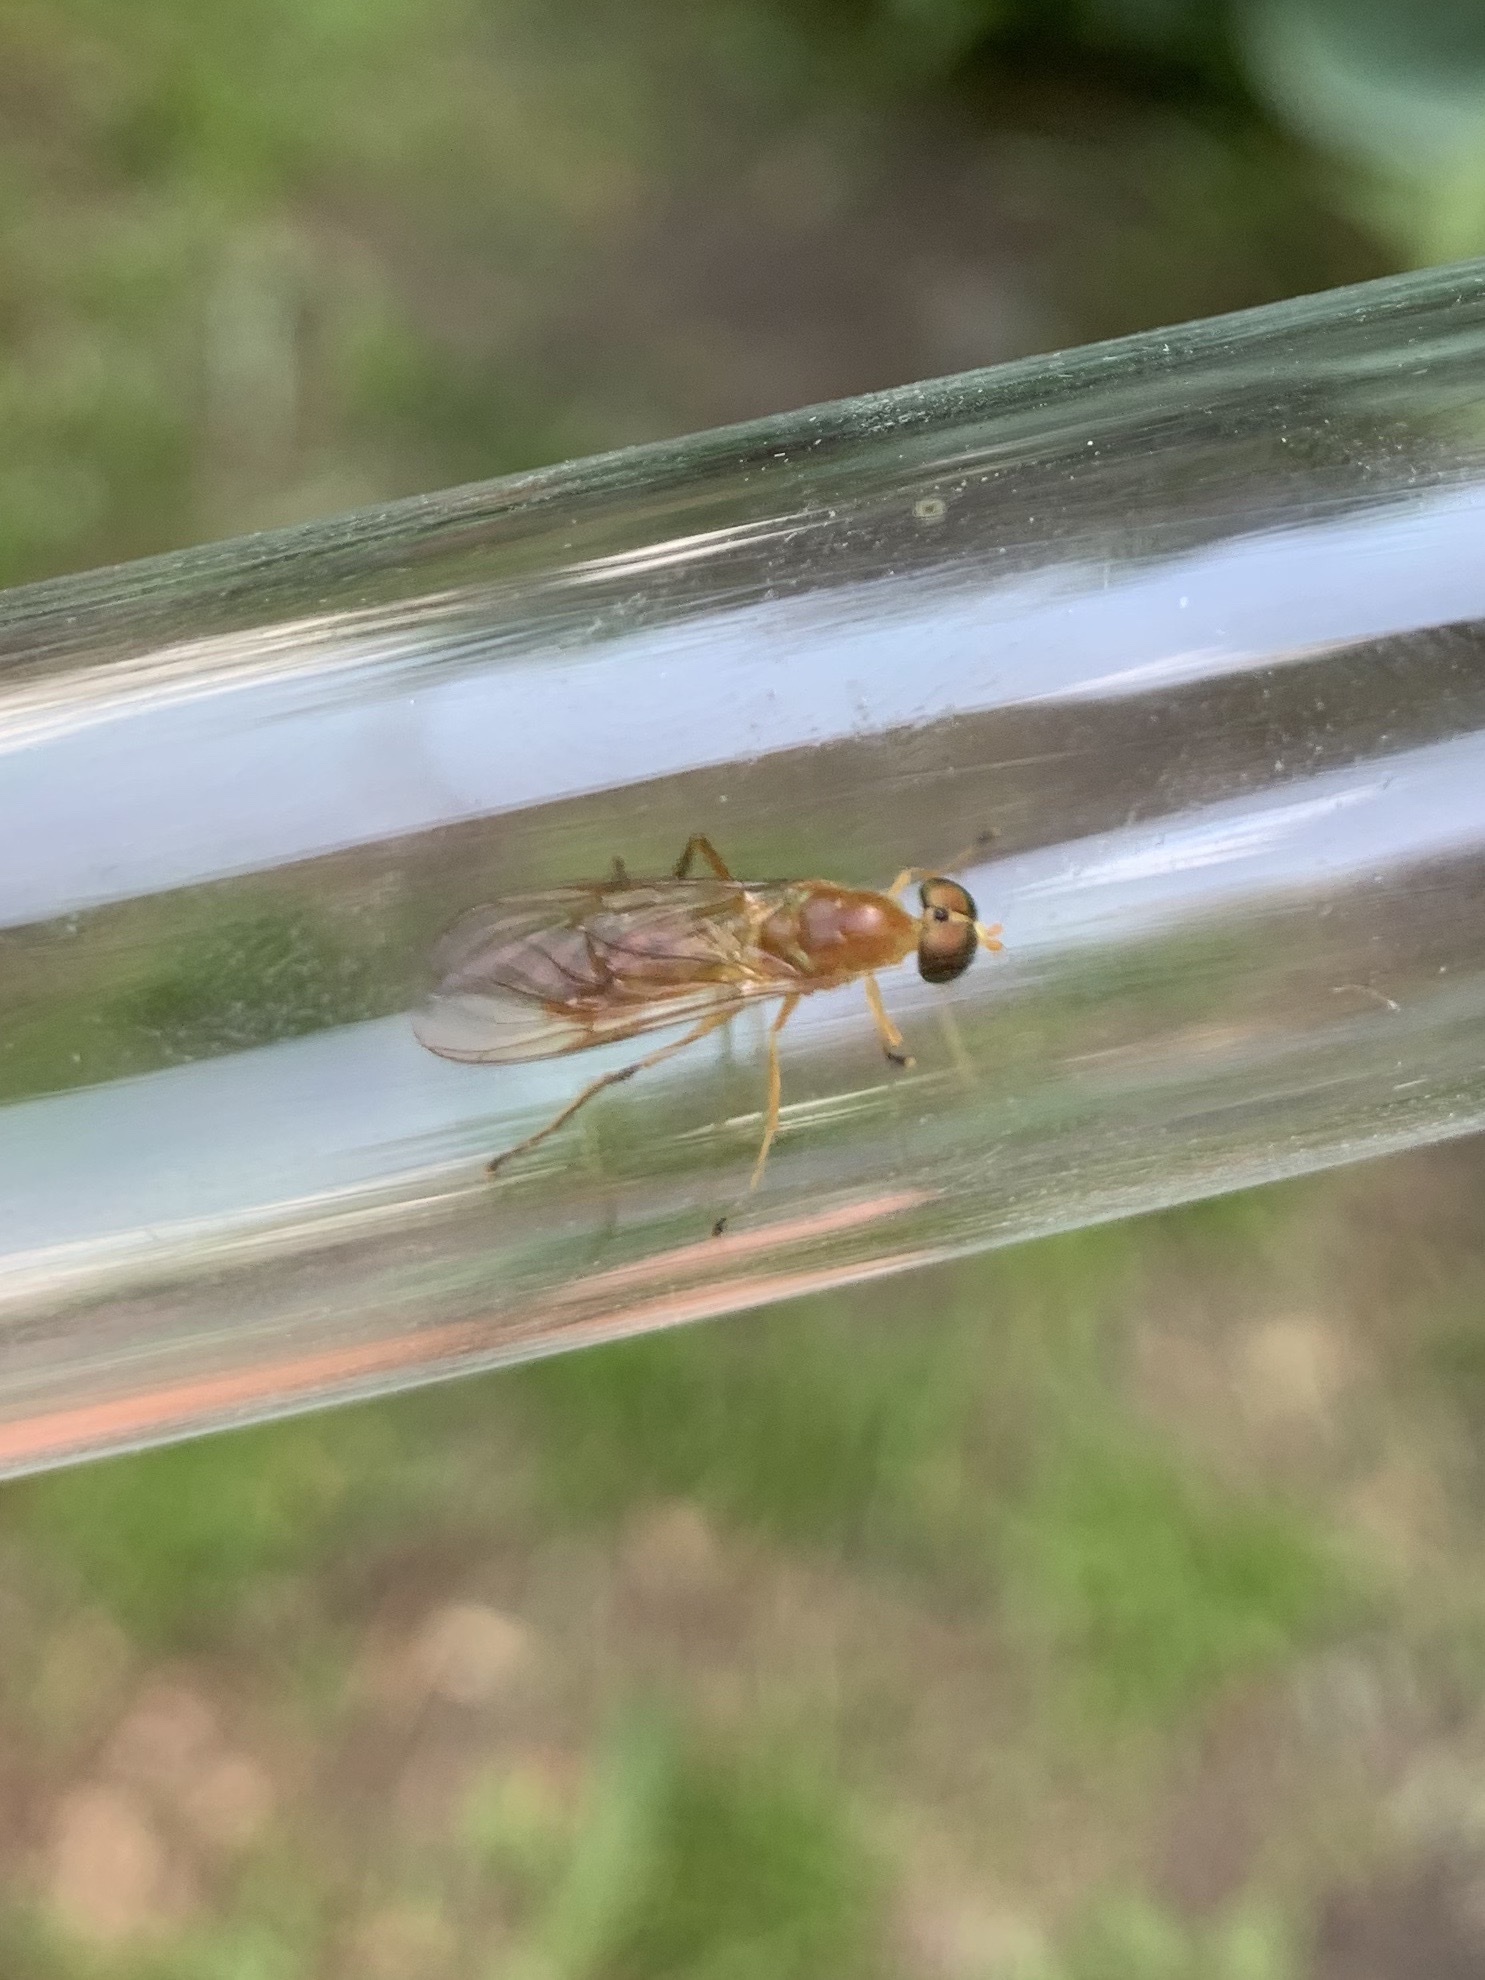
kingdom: Animalia
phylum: Arthropoda
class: Insecta
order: Diptera
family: Stratiomyidae
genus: Ptecticus
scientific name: Ptecticus trivittatus
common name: Compost fly
